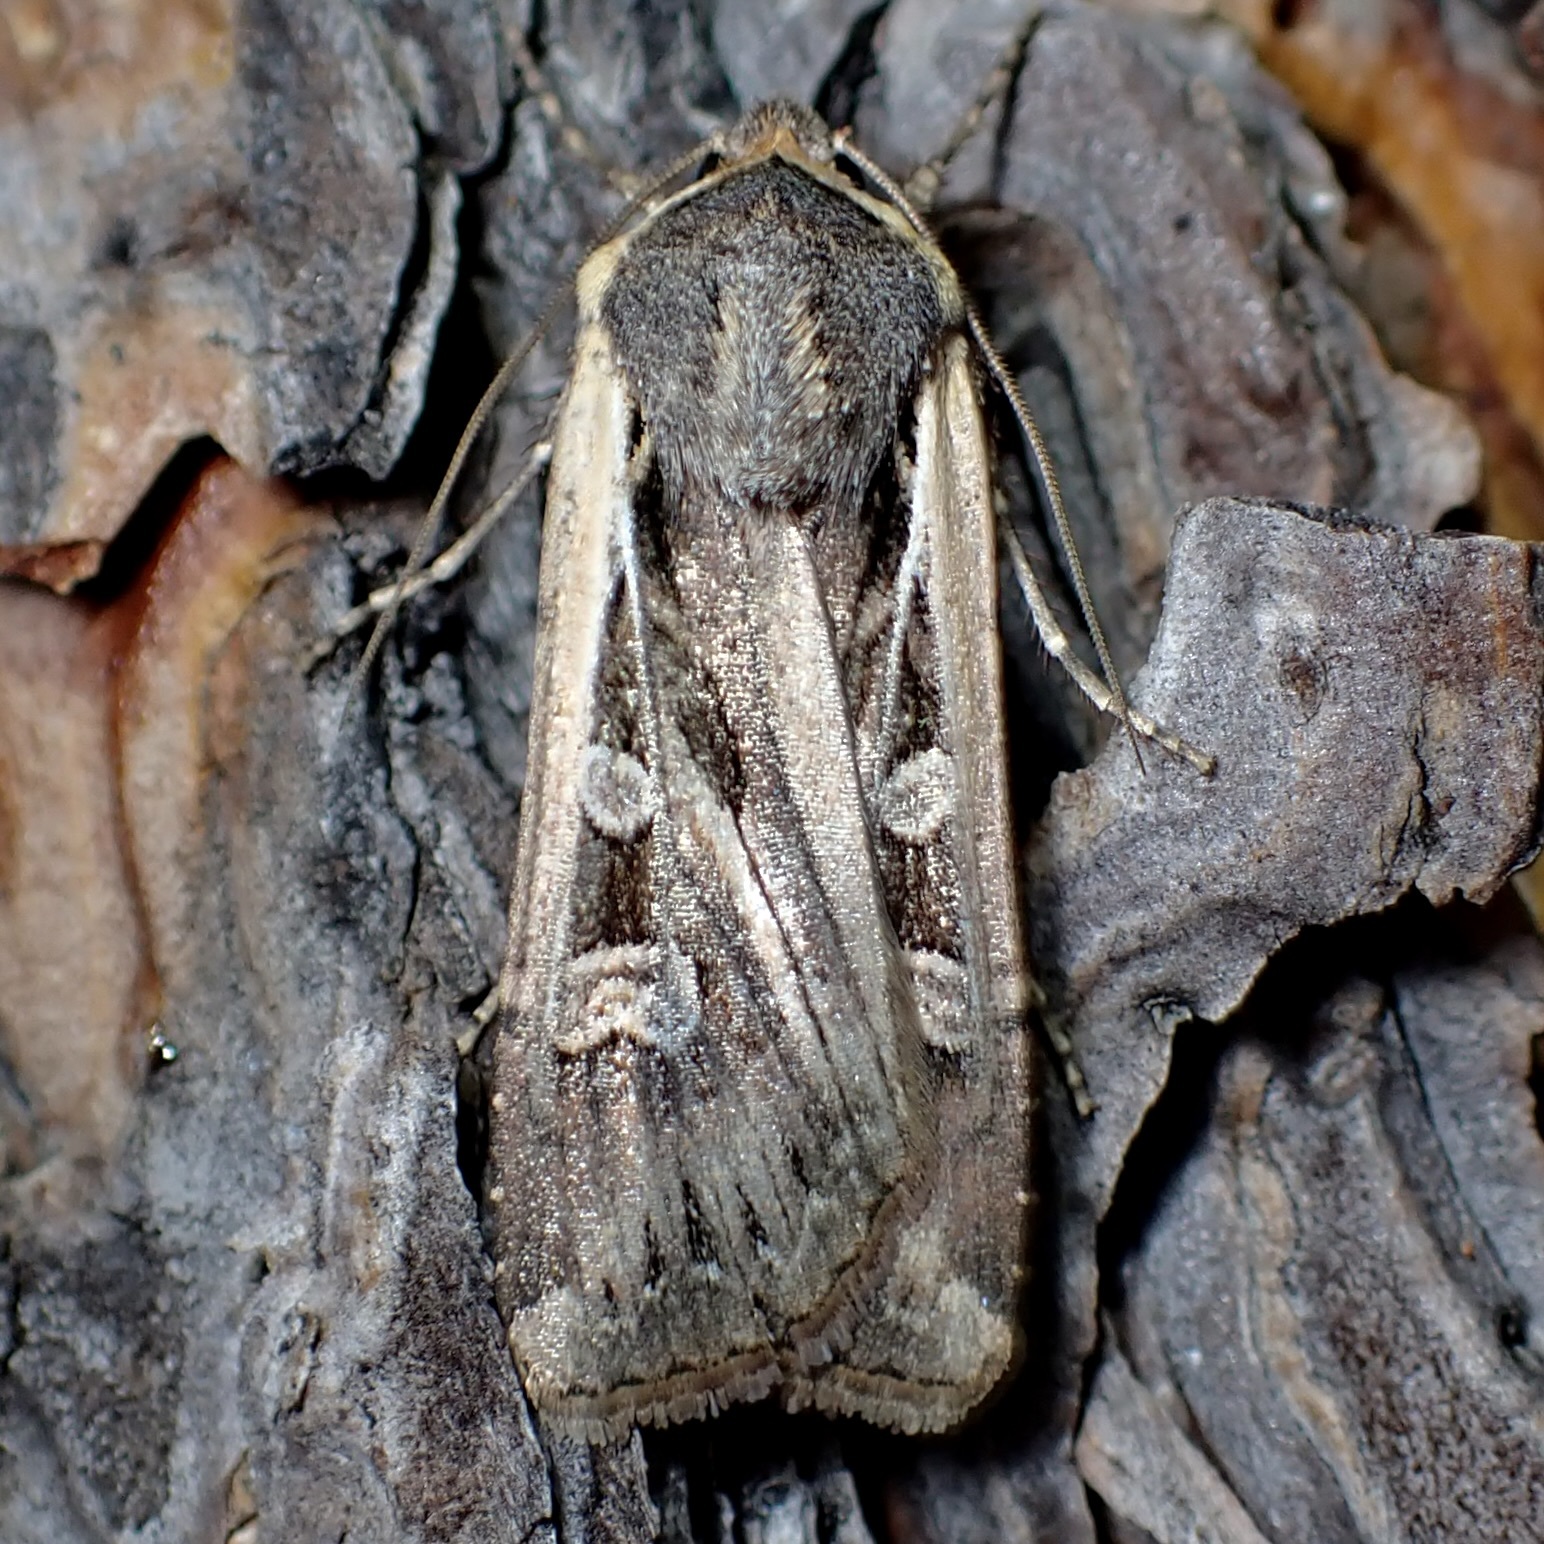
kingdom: Animalia
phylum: Arthropoda
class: Insecta
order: Lepidoptera
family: Noctuidae
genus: Euxoa
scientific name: Euxoa auxiliaris
